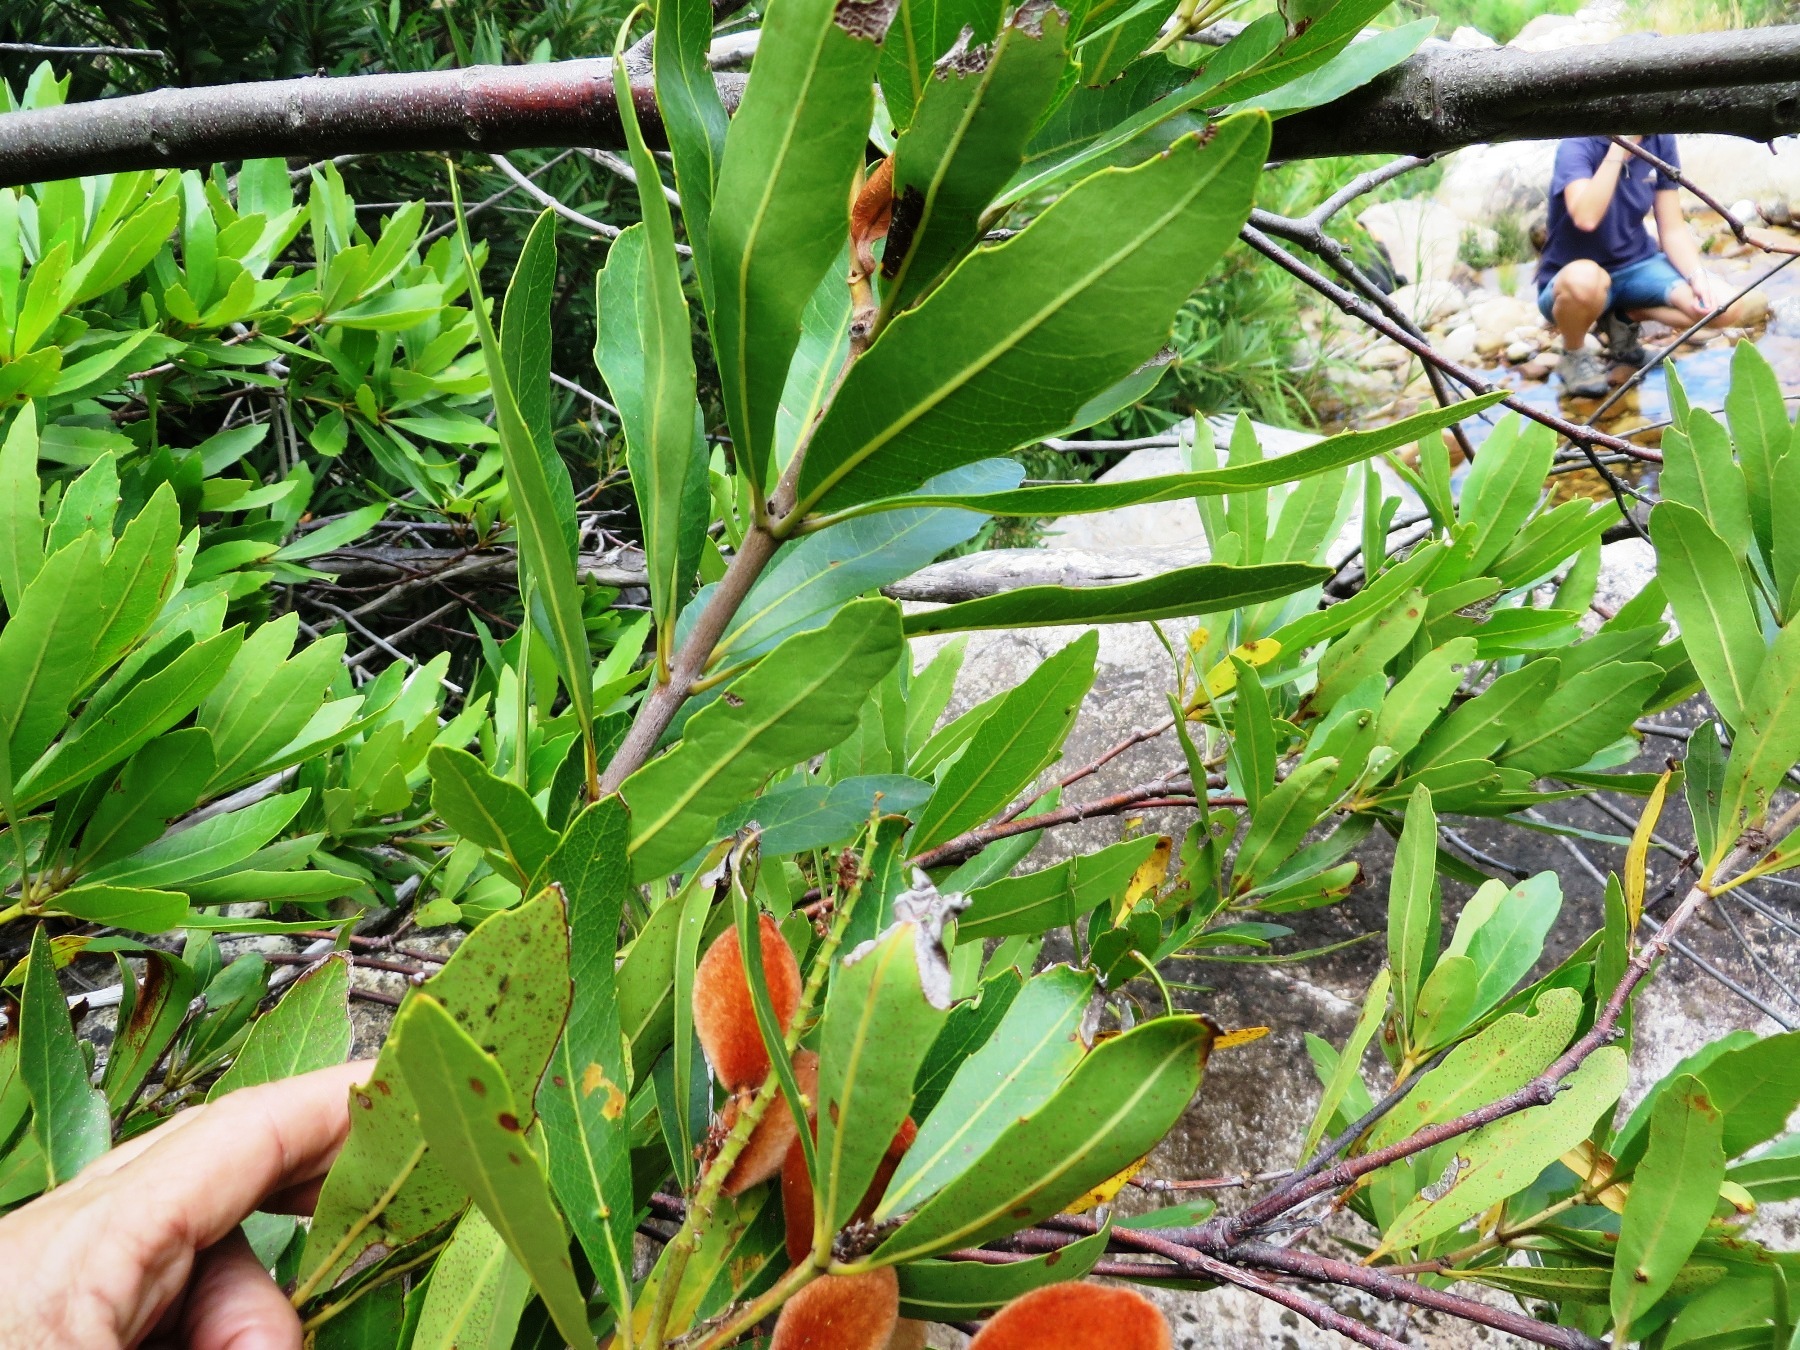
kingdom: Plantae
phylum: Tracheophyta
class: Magnoliopsida
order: Proteales
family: Proteaceae
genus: Brabejum
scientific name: Brabejum stellatifolium
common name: Wild almond
